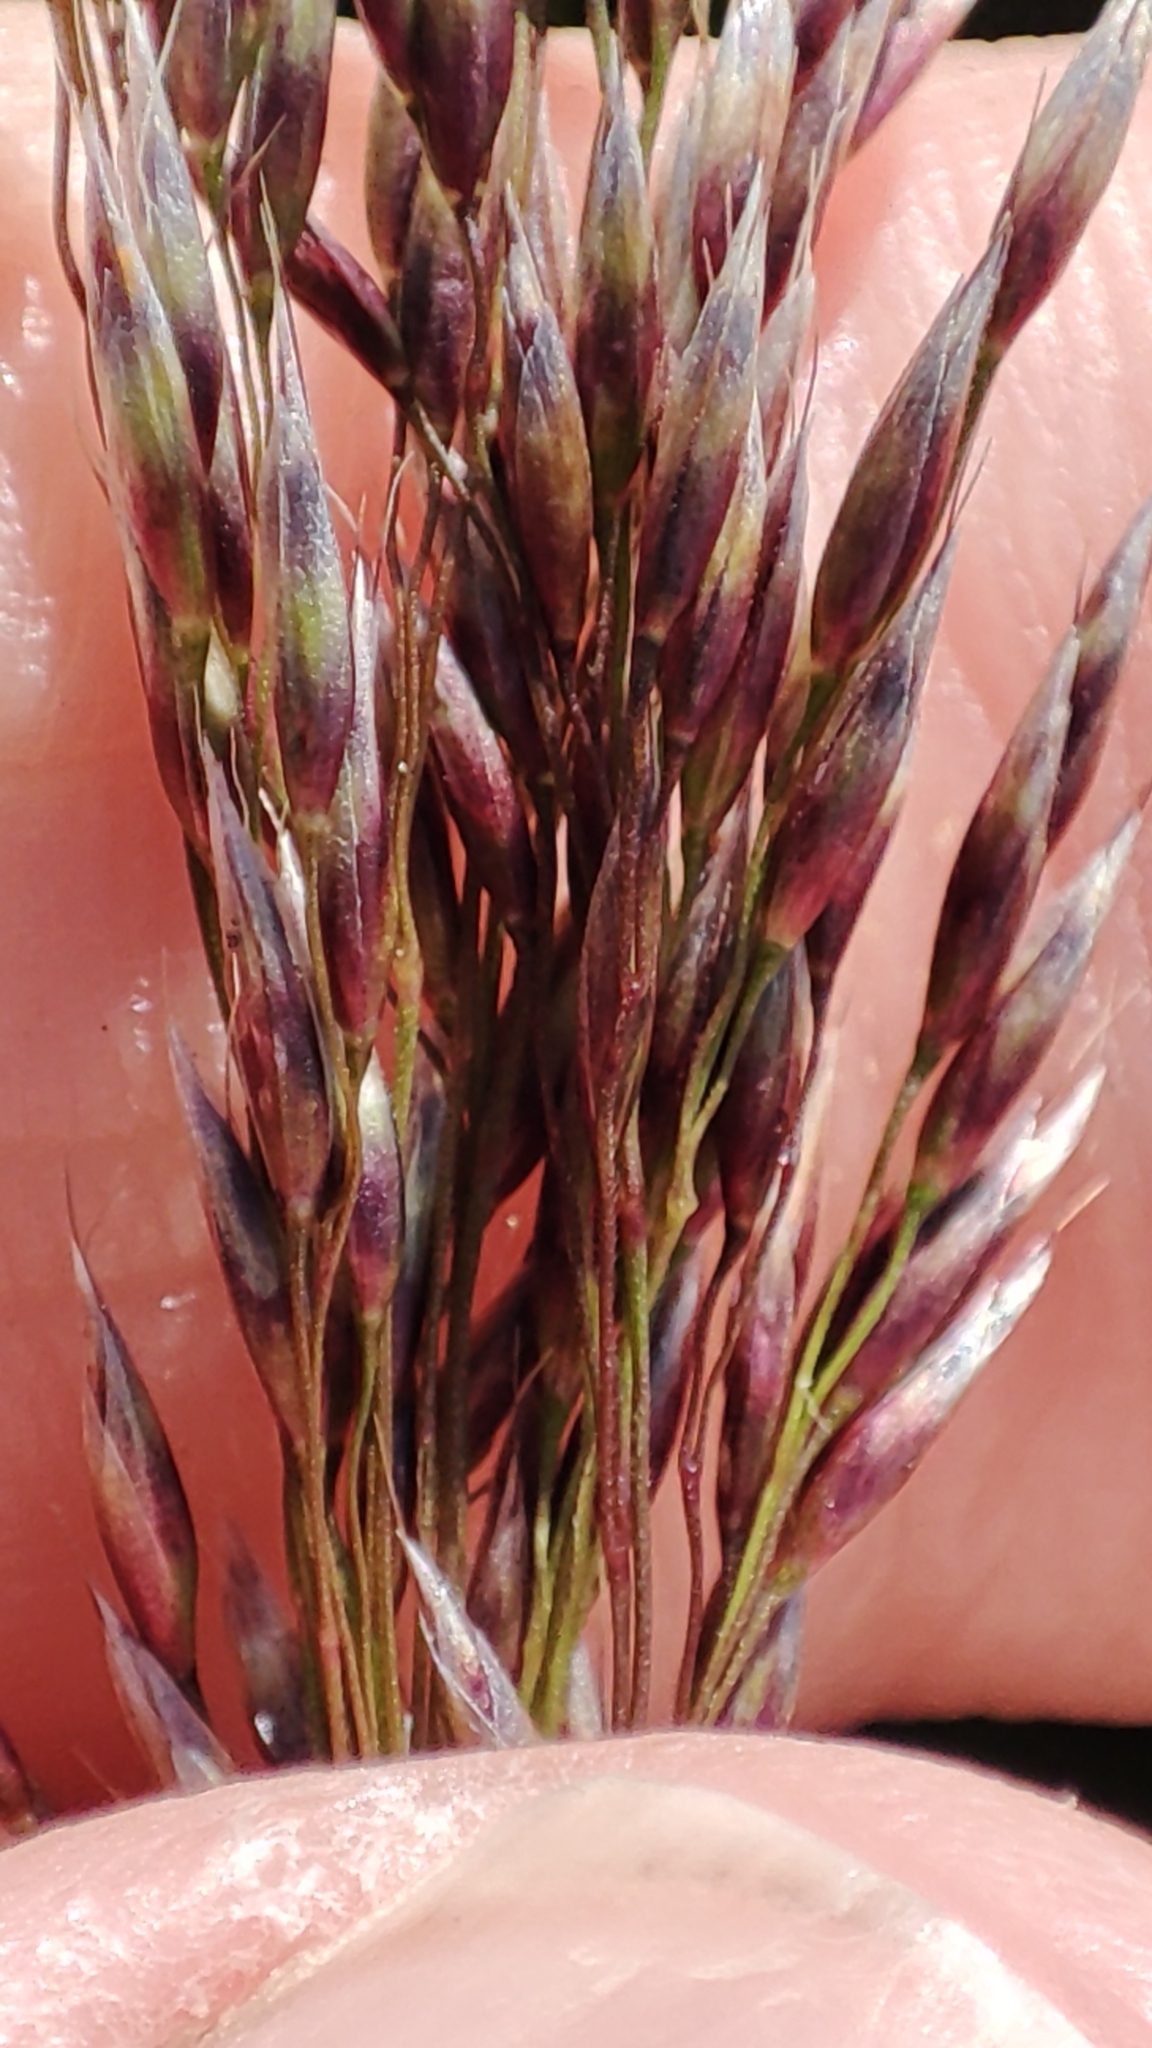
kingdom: Plantae
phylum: Tracheophyta
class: Liliopsida
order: Poales
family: Poaceae
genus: Avenella
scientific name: Avenella flexuosa
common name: Wavy hairgrass
